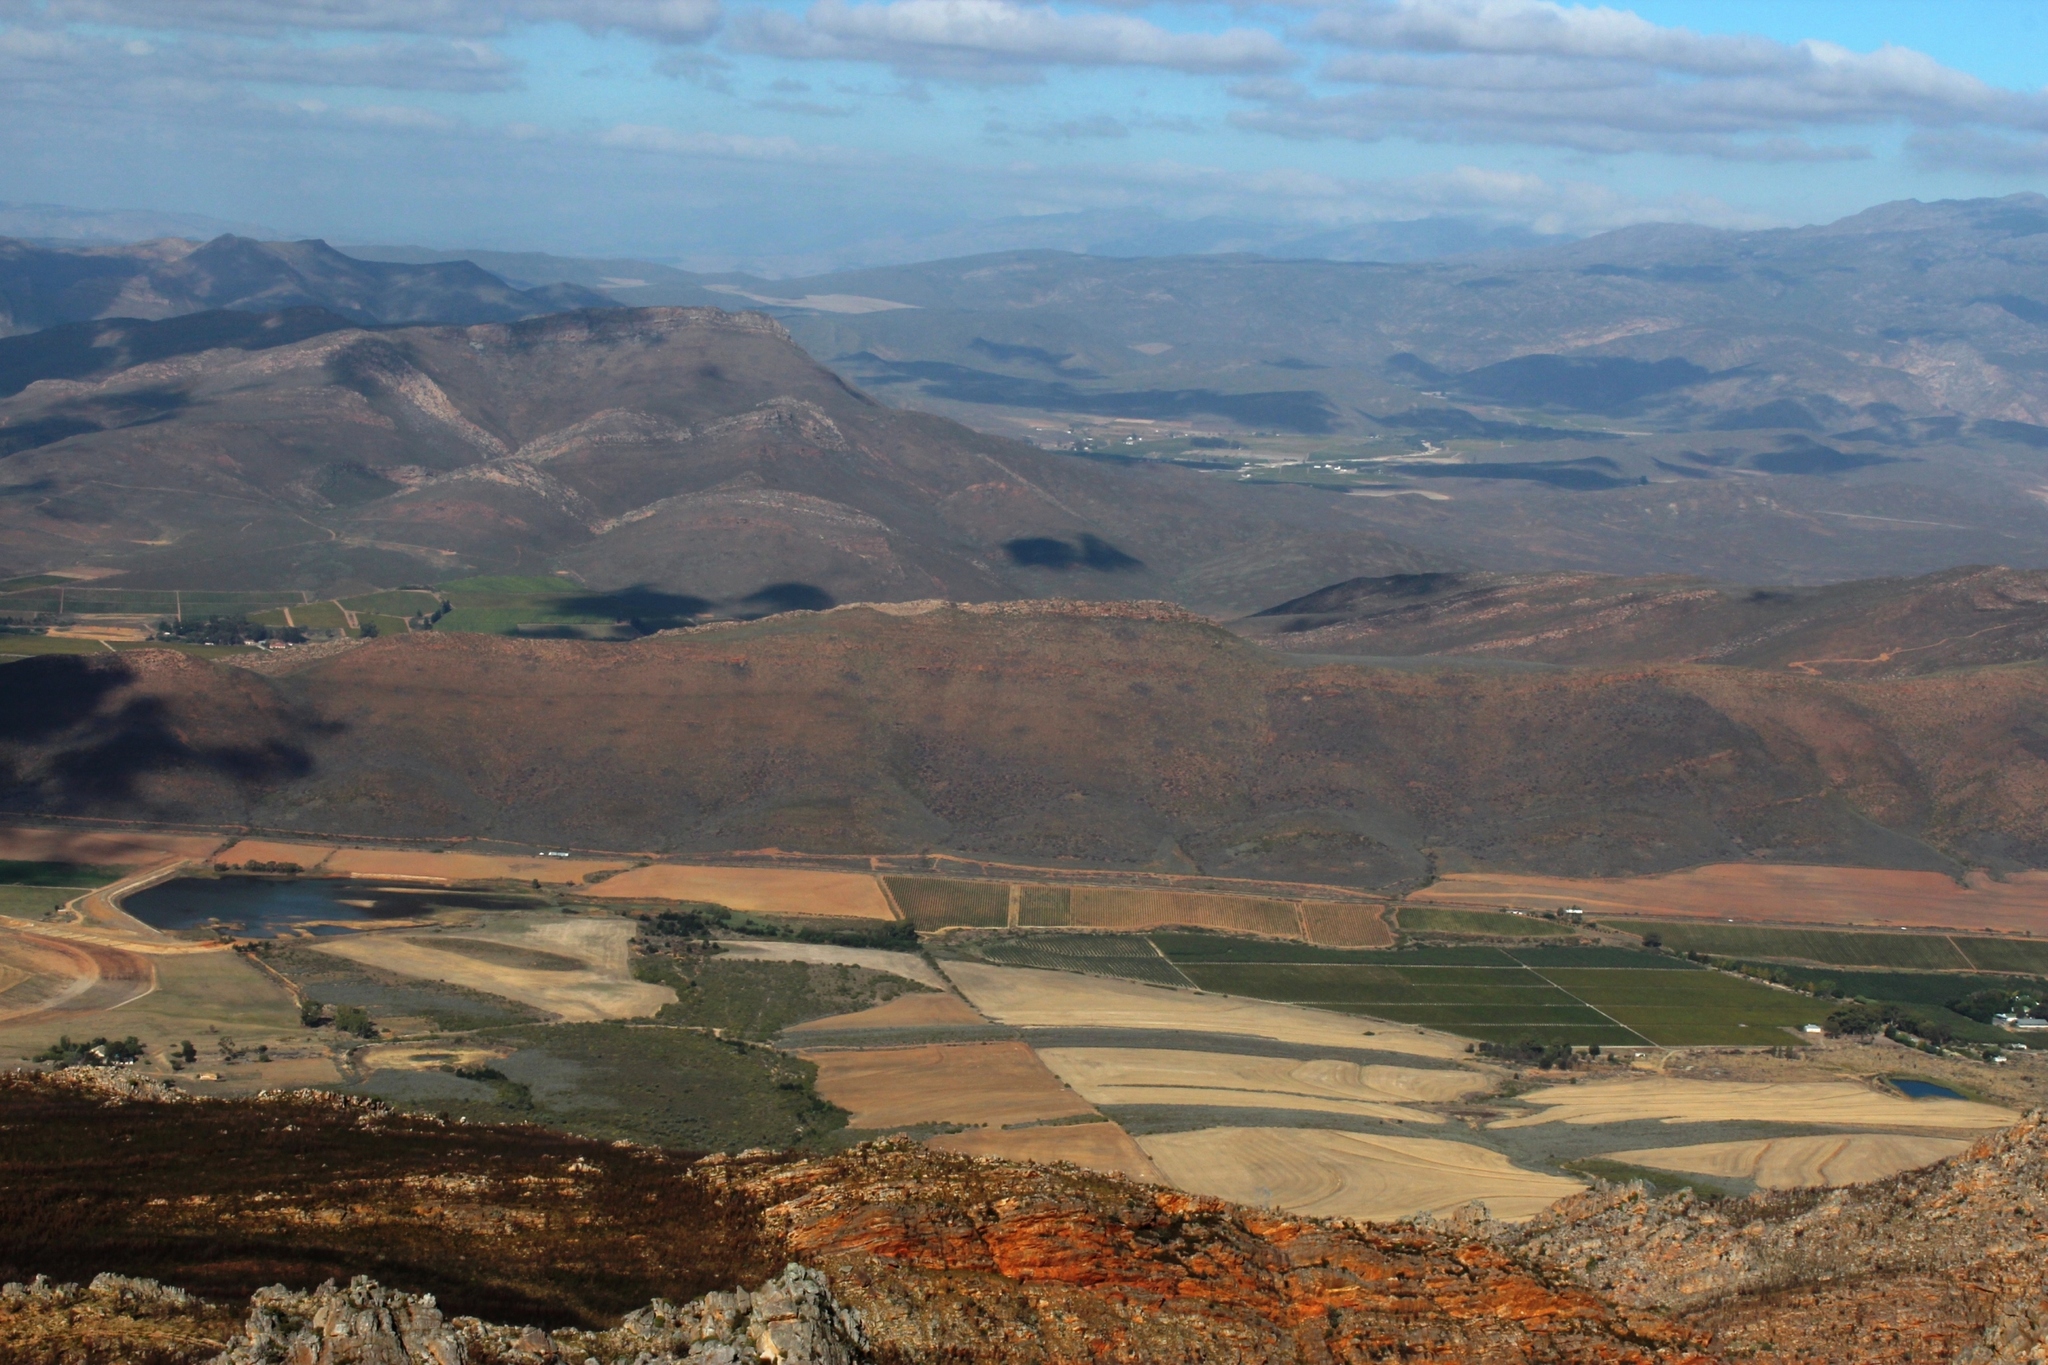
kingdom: Animalia
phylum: Arthropoda
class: Insecta
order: Blattodea
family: Hodotermitidae
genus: Microhodotermes
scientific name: Microhodotermes viator
